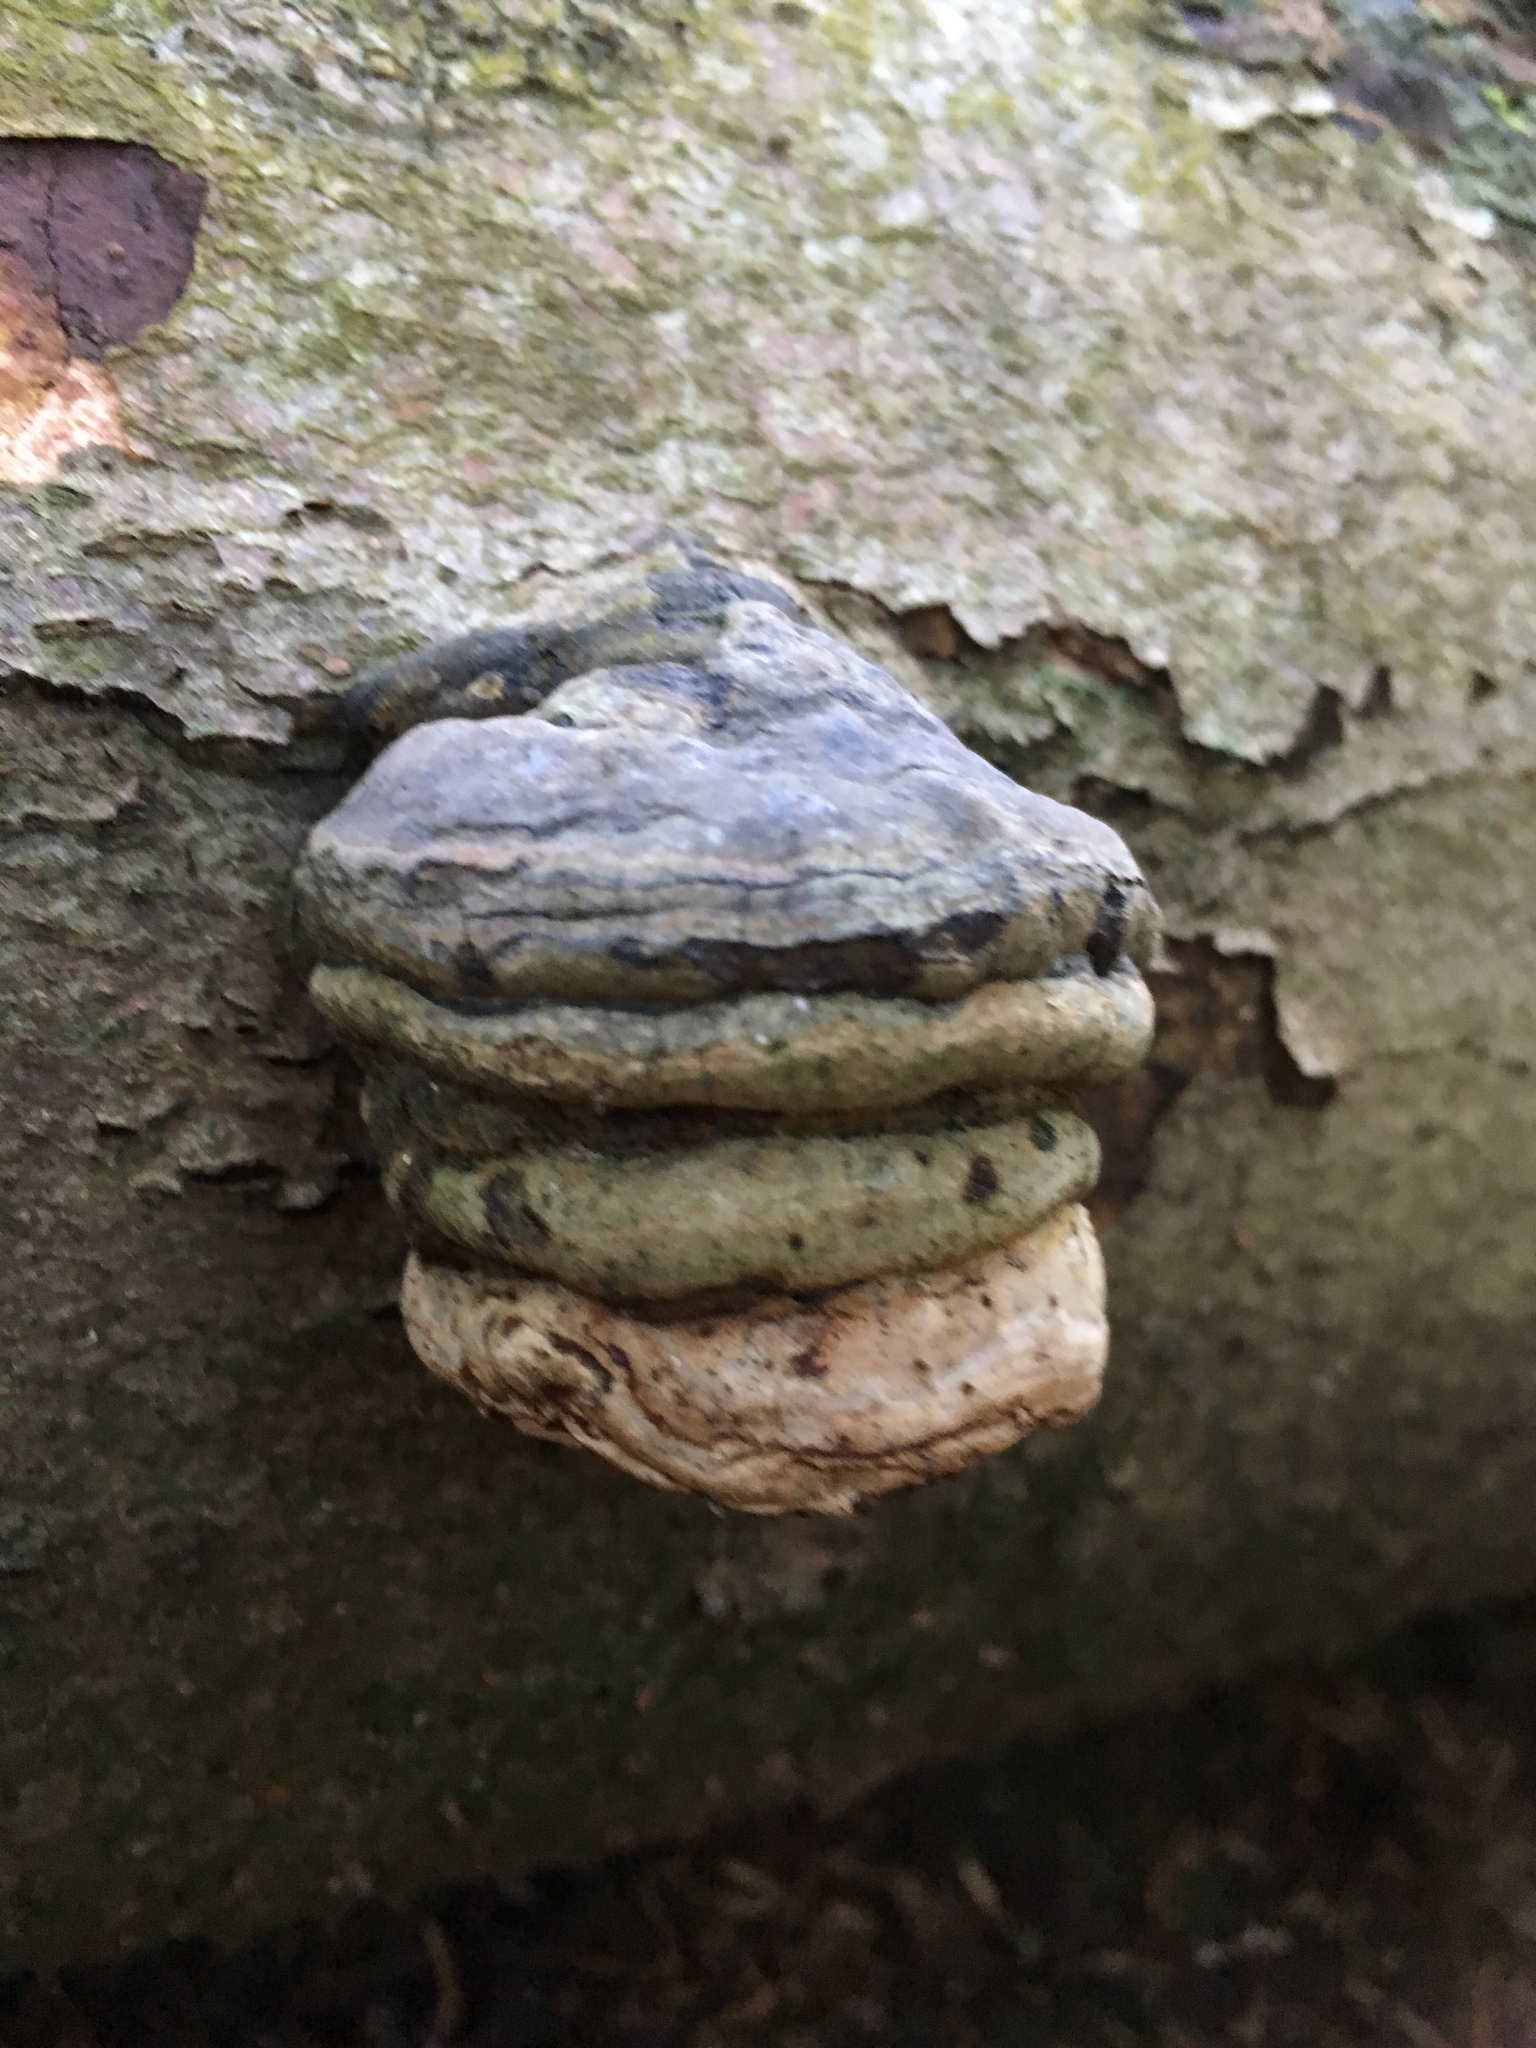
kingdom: Fungi
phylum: Basidiomycota
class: Agaricomycetes
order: Polyporales
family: Polyporaceae
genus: Fomes
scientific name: Fomes fomentarius
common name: Hoof fungus
